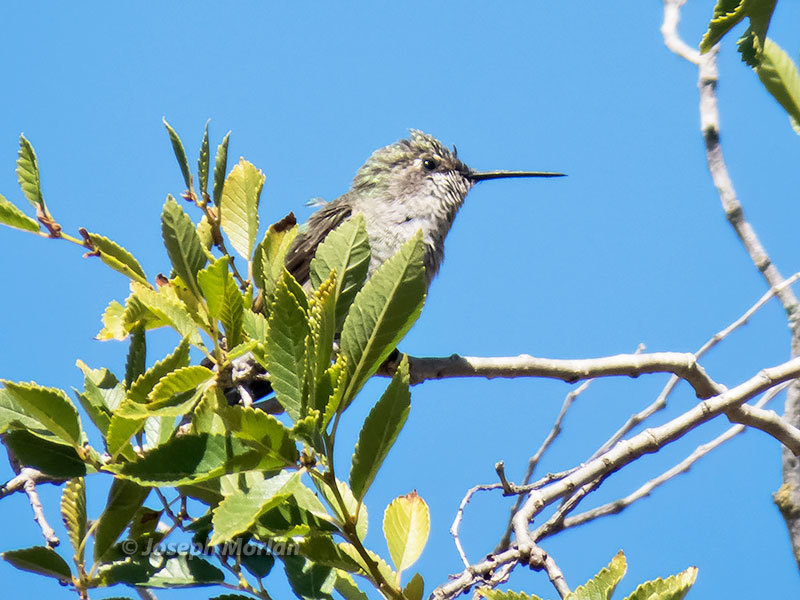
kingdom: Animalia
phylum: Chordata
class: Aves
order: Apodiformes
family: Trochilidae
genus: Calypte
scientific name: Calypte anna
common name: Anna's hummingbird
